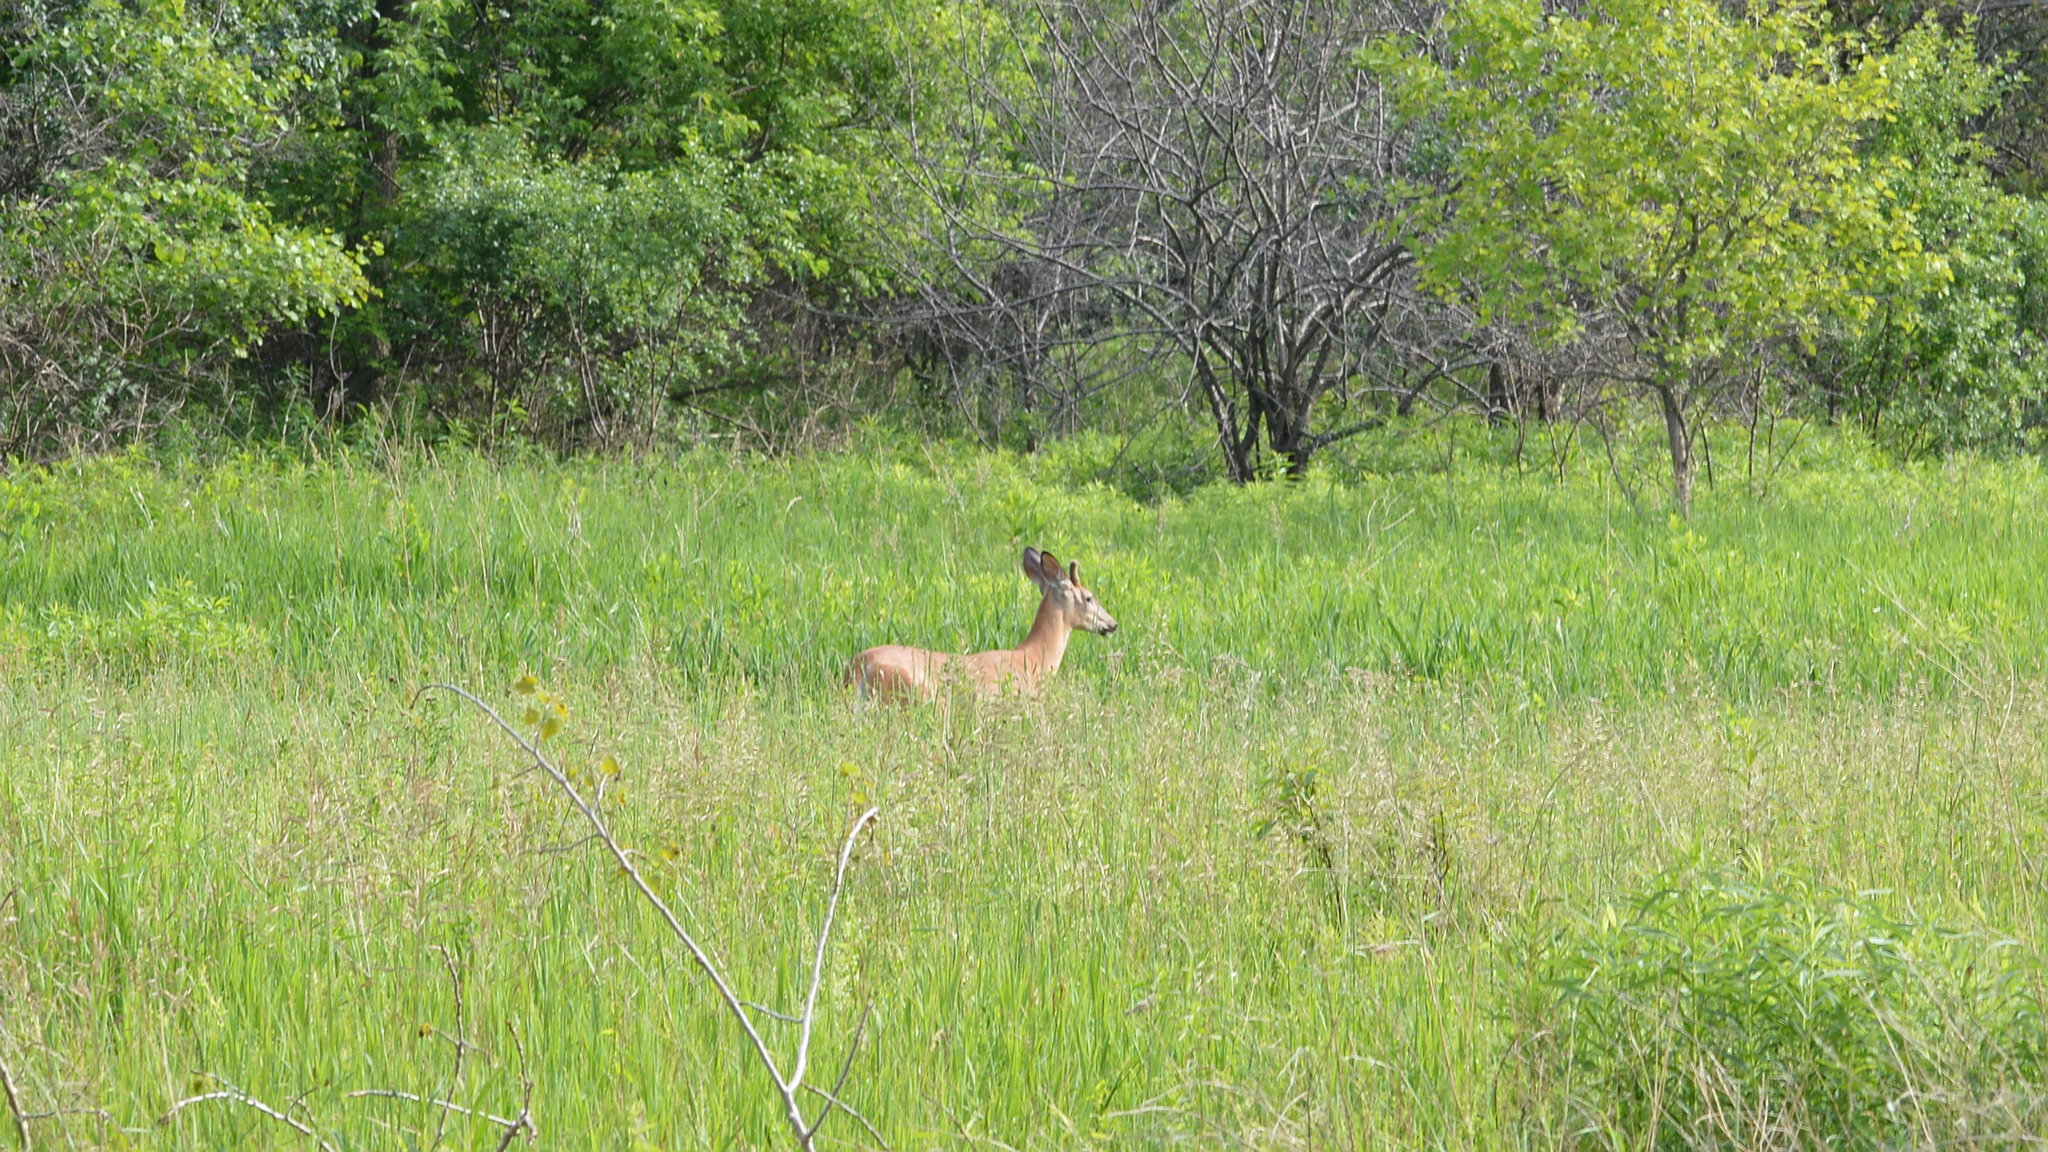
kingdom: Animalia
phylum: Chordata
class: Mammalia
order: Artiodactyla
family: Cervidae
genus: Odocoileus
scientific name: Odocoileus virginianus
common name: White-tailed deer
